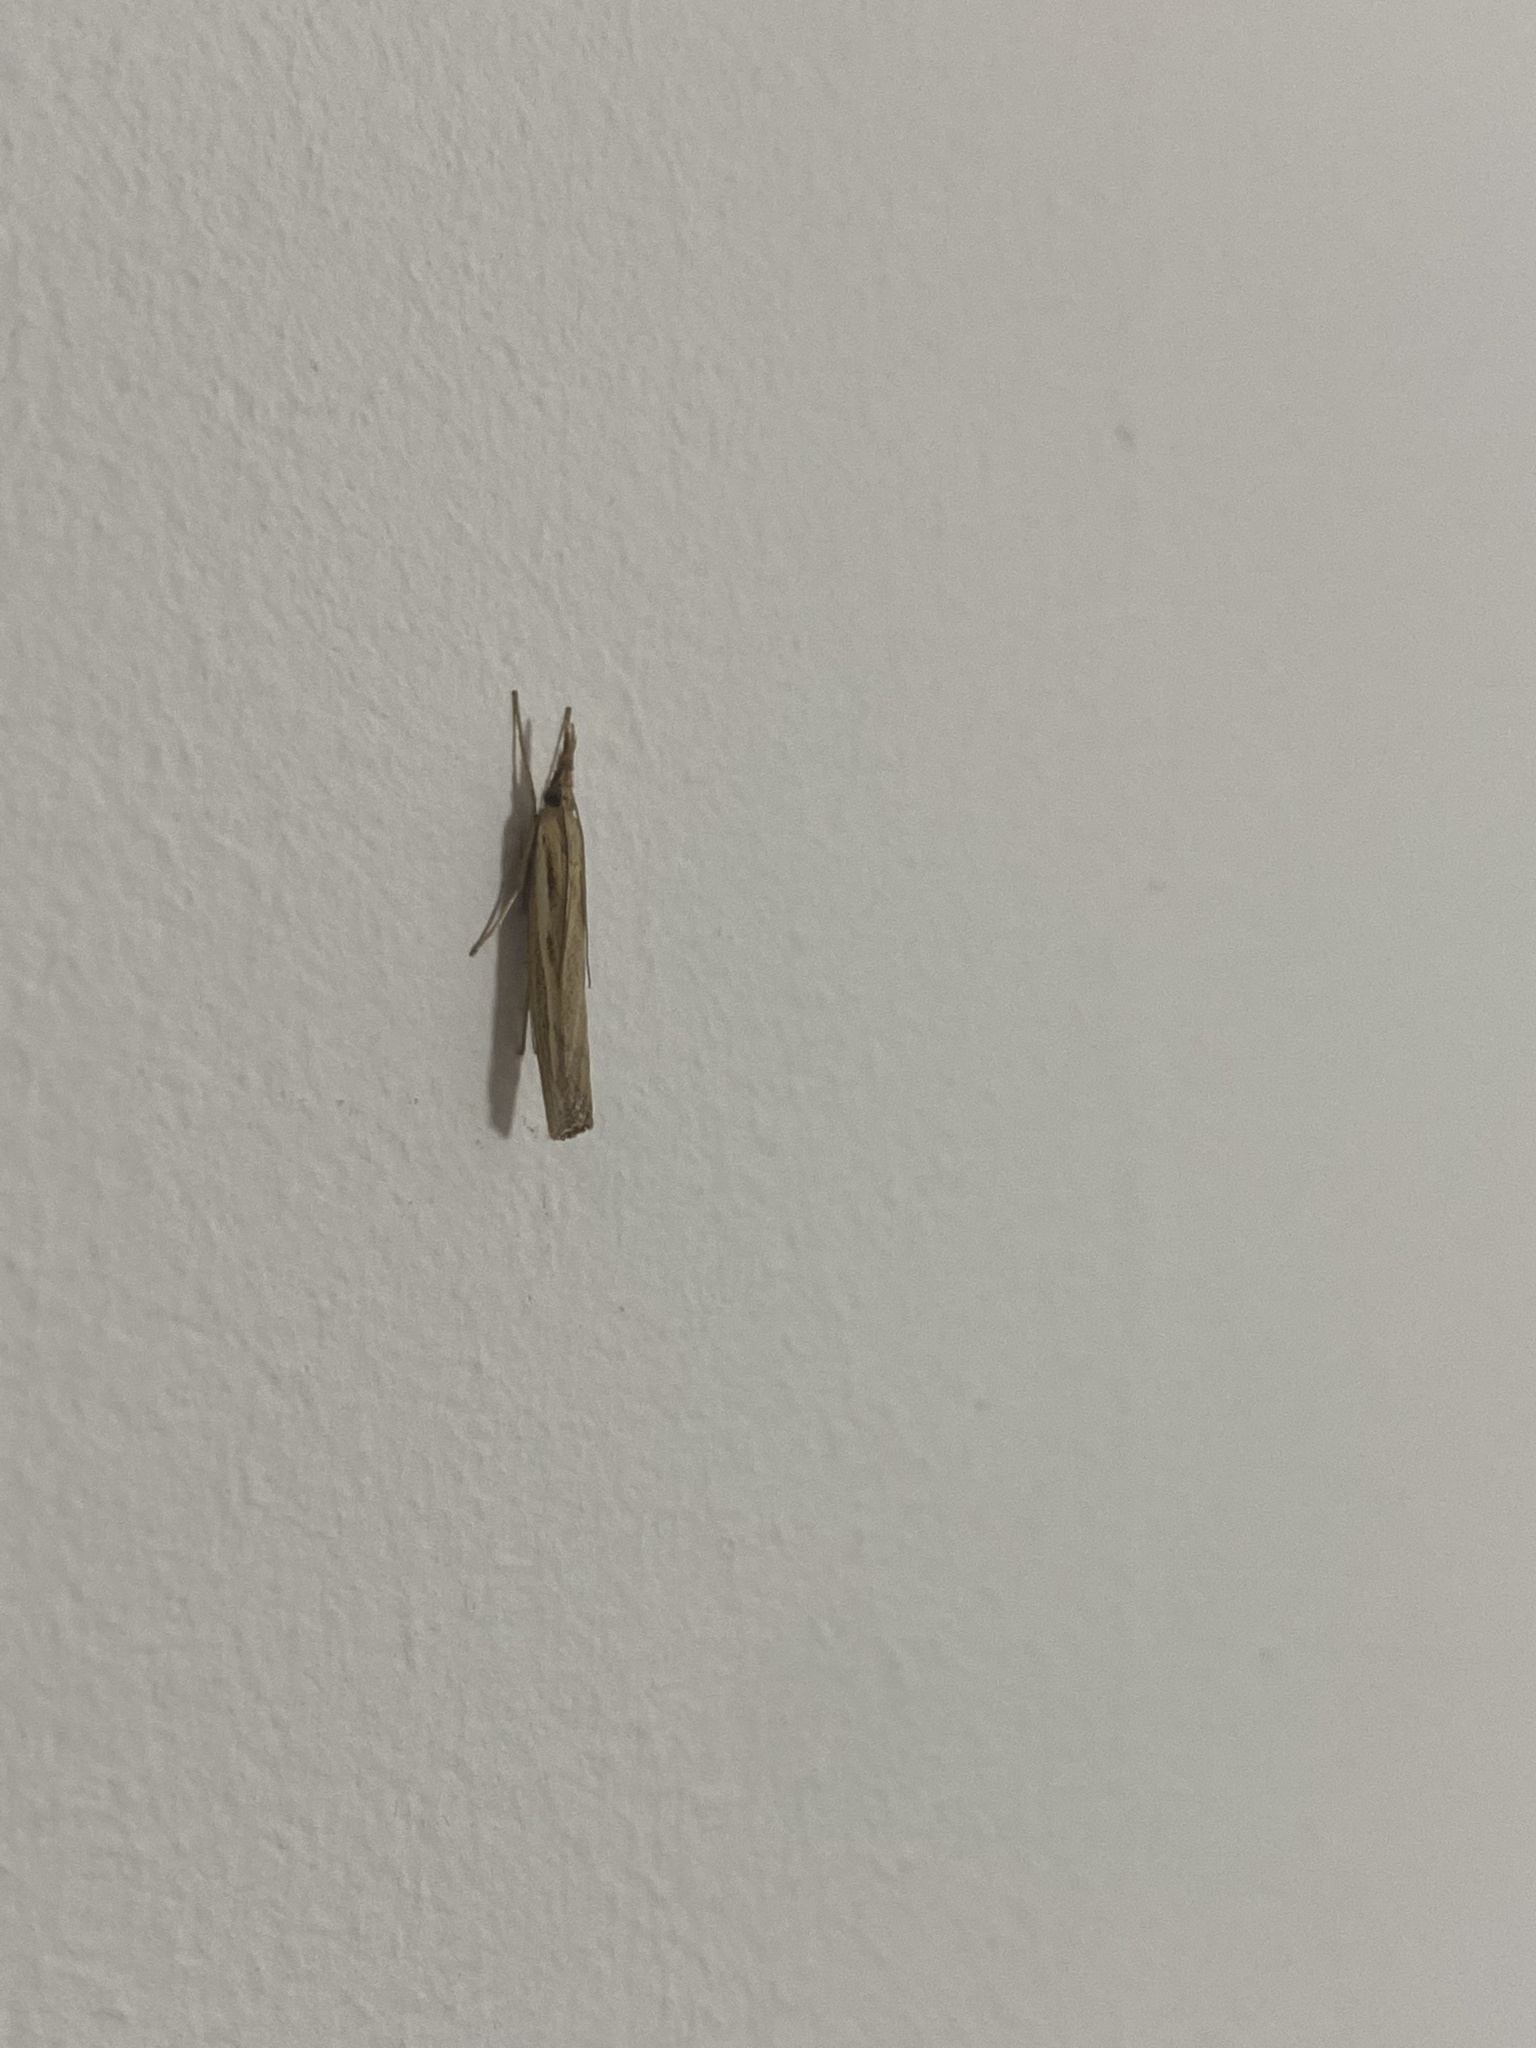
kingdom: Animalia
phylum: Arthropoda
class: Insecta
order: Lepidoptera
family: Crambidae
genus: Agriphila
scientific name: Agriphila tristellus
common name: Common grass-veneer
